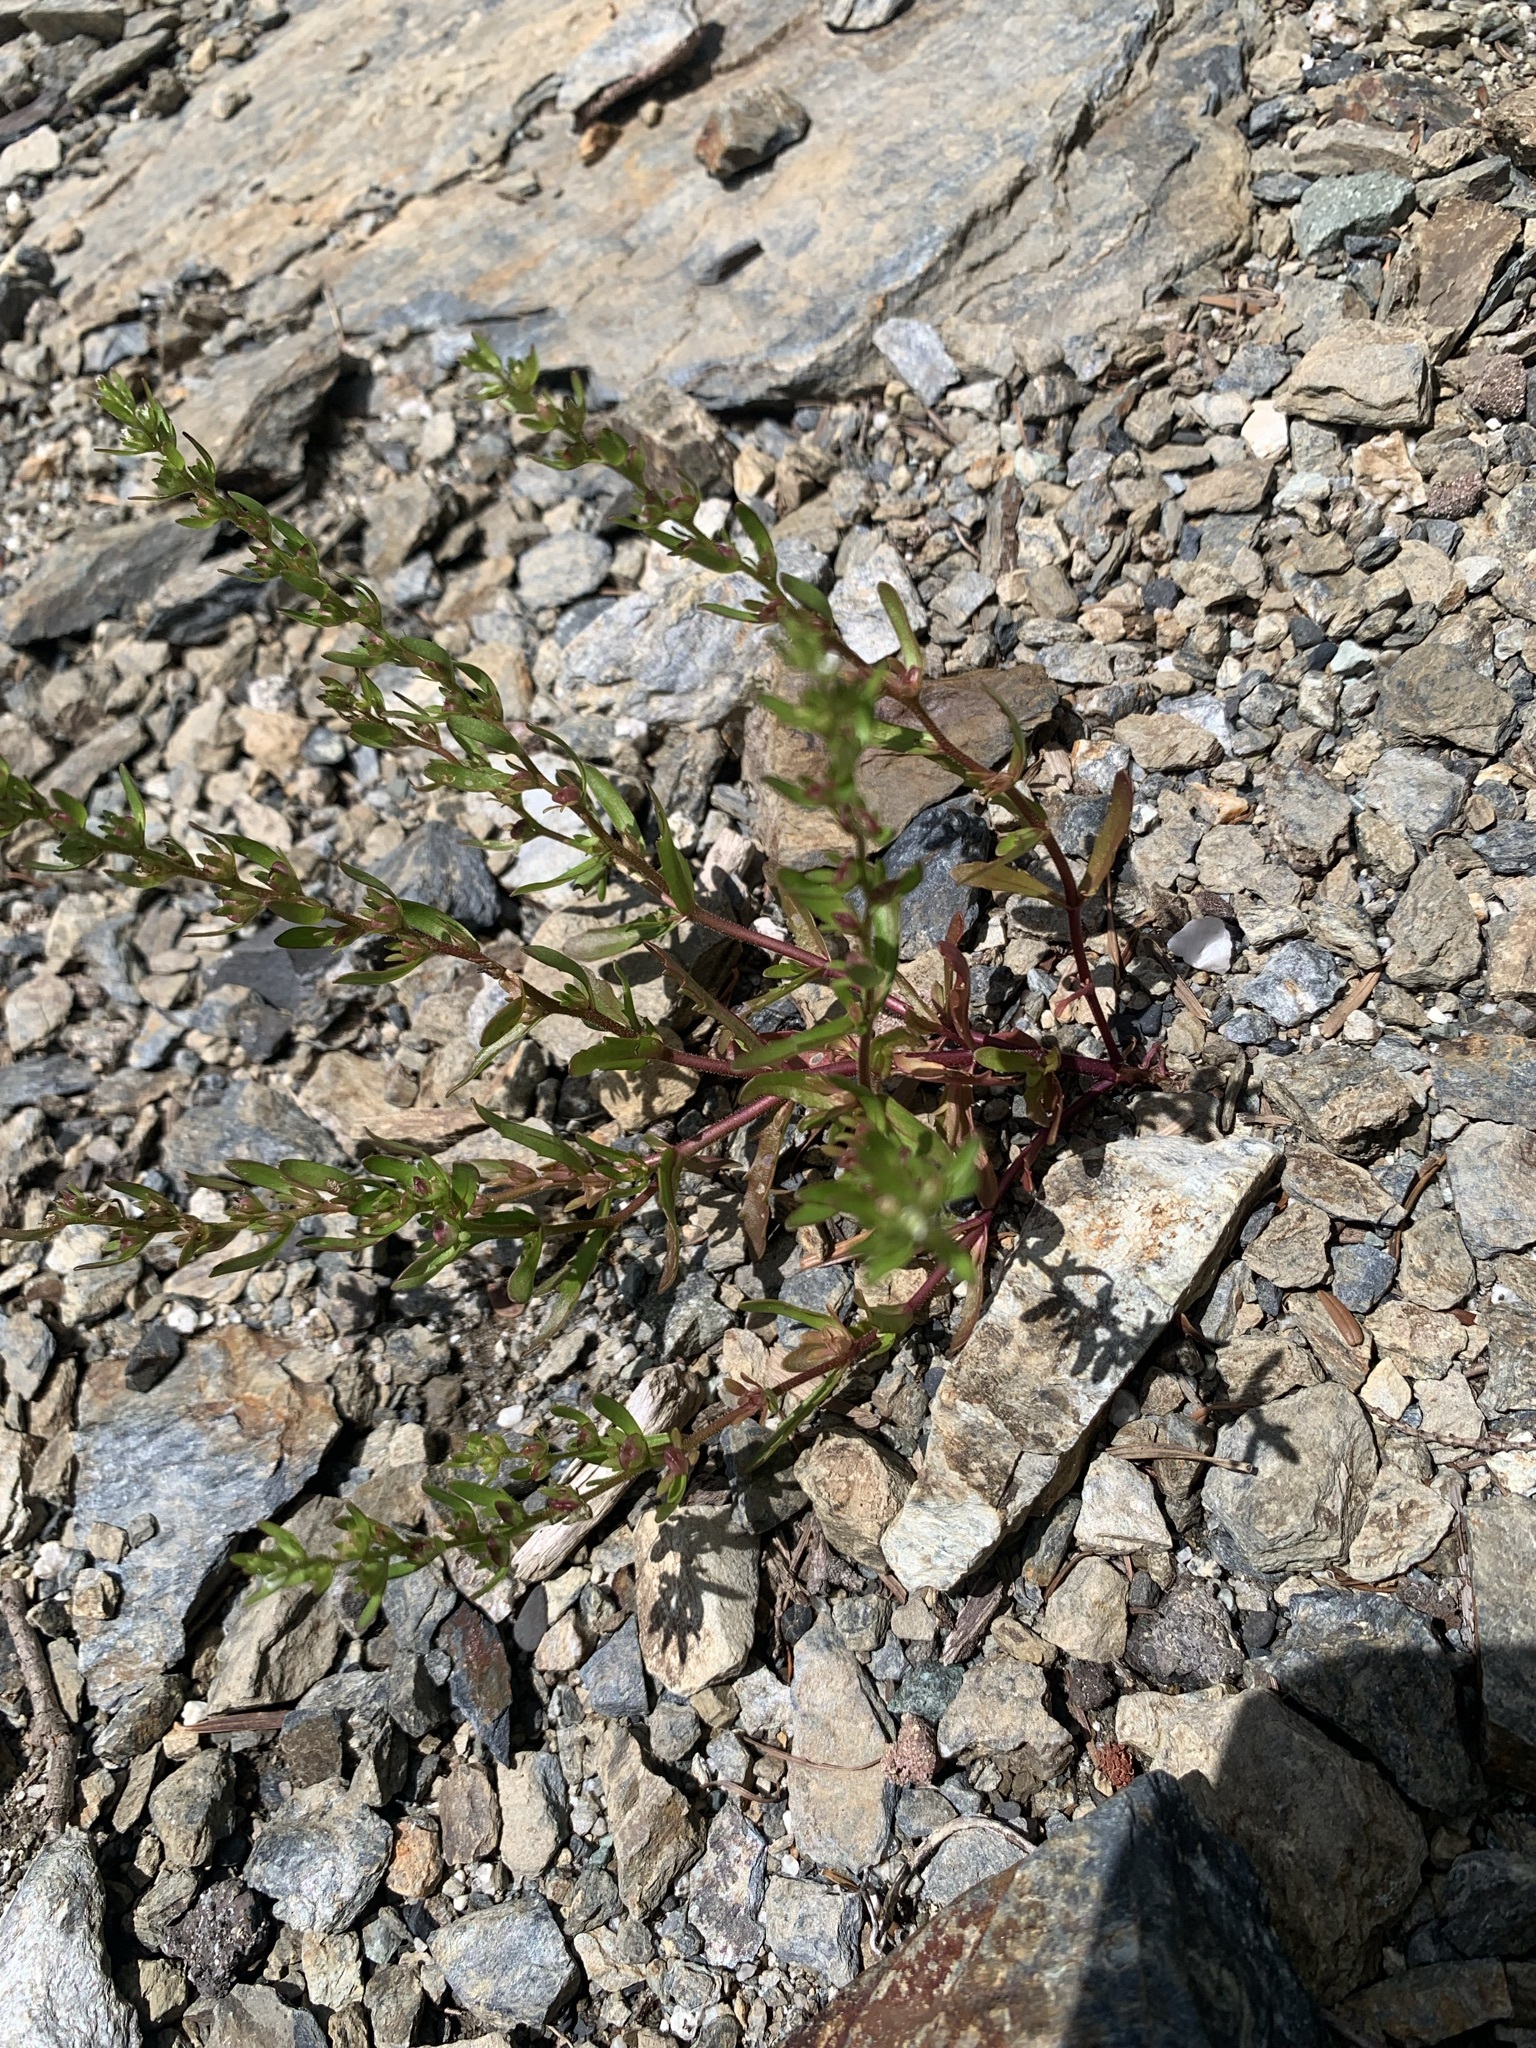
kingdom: Plantae
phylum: Tracheophyta
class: Magnoliopsida
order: Lamiales
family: Plantaginaceae
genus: Veronica
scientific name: Veronica peregrina
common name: Neckweed
